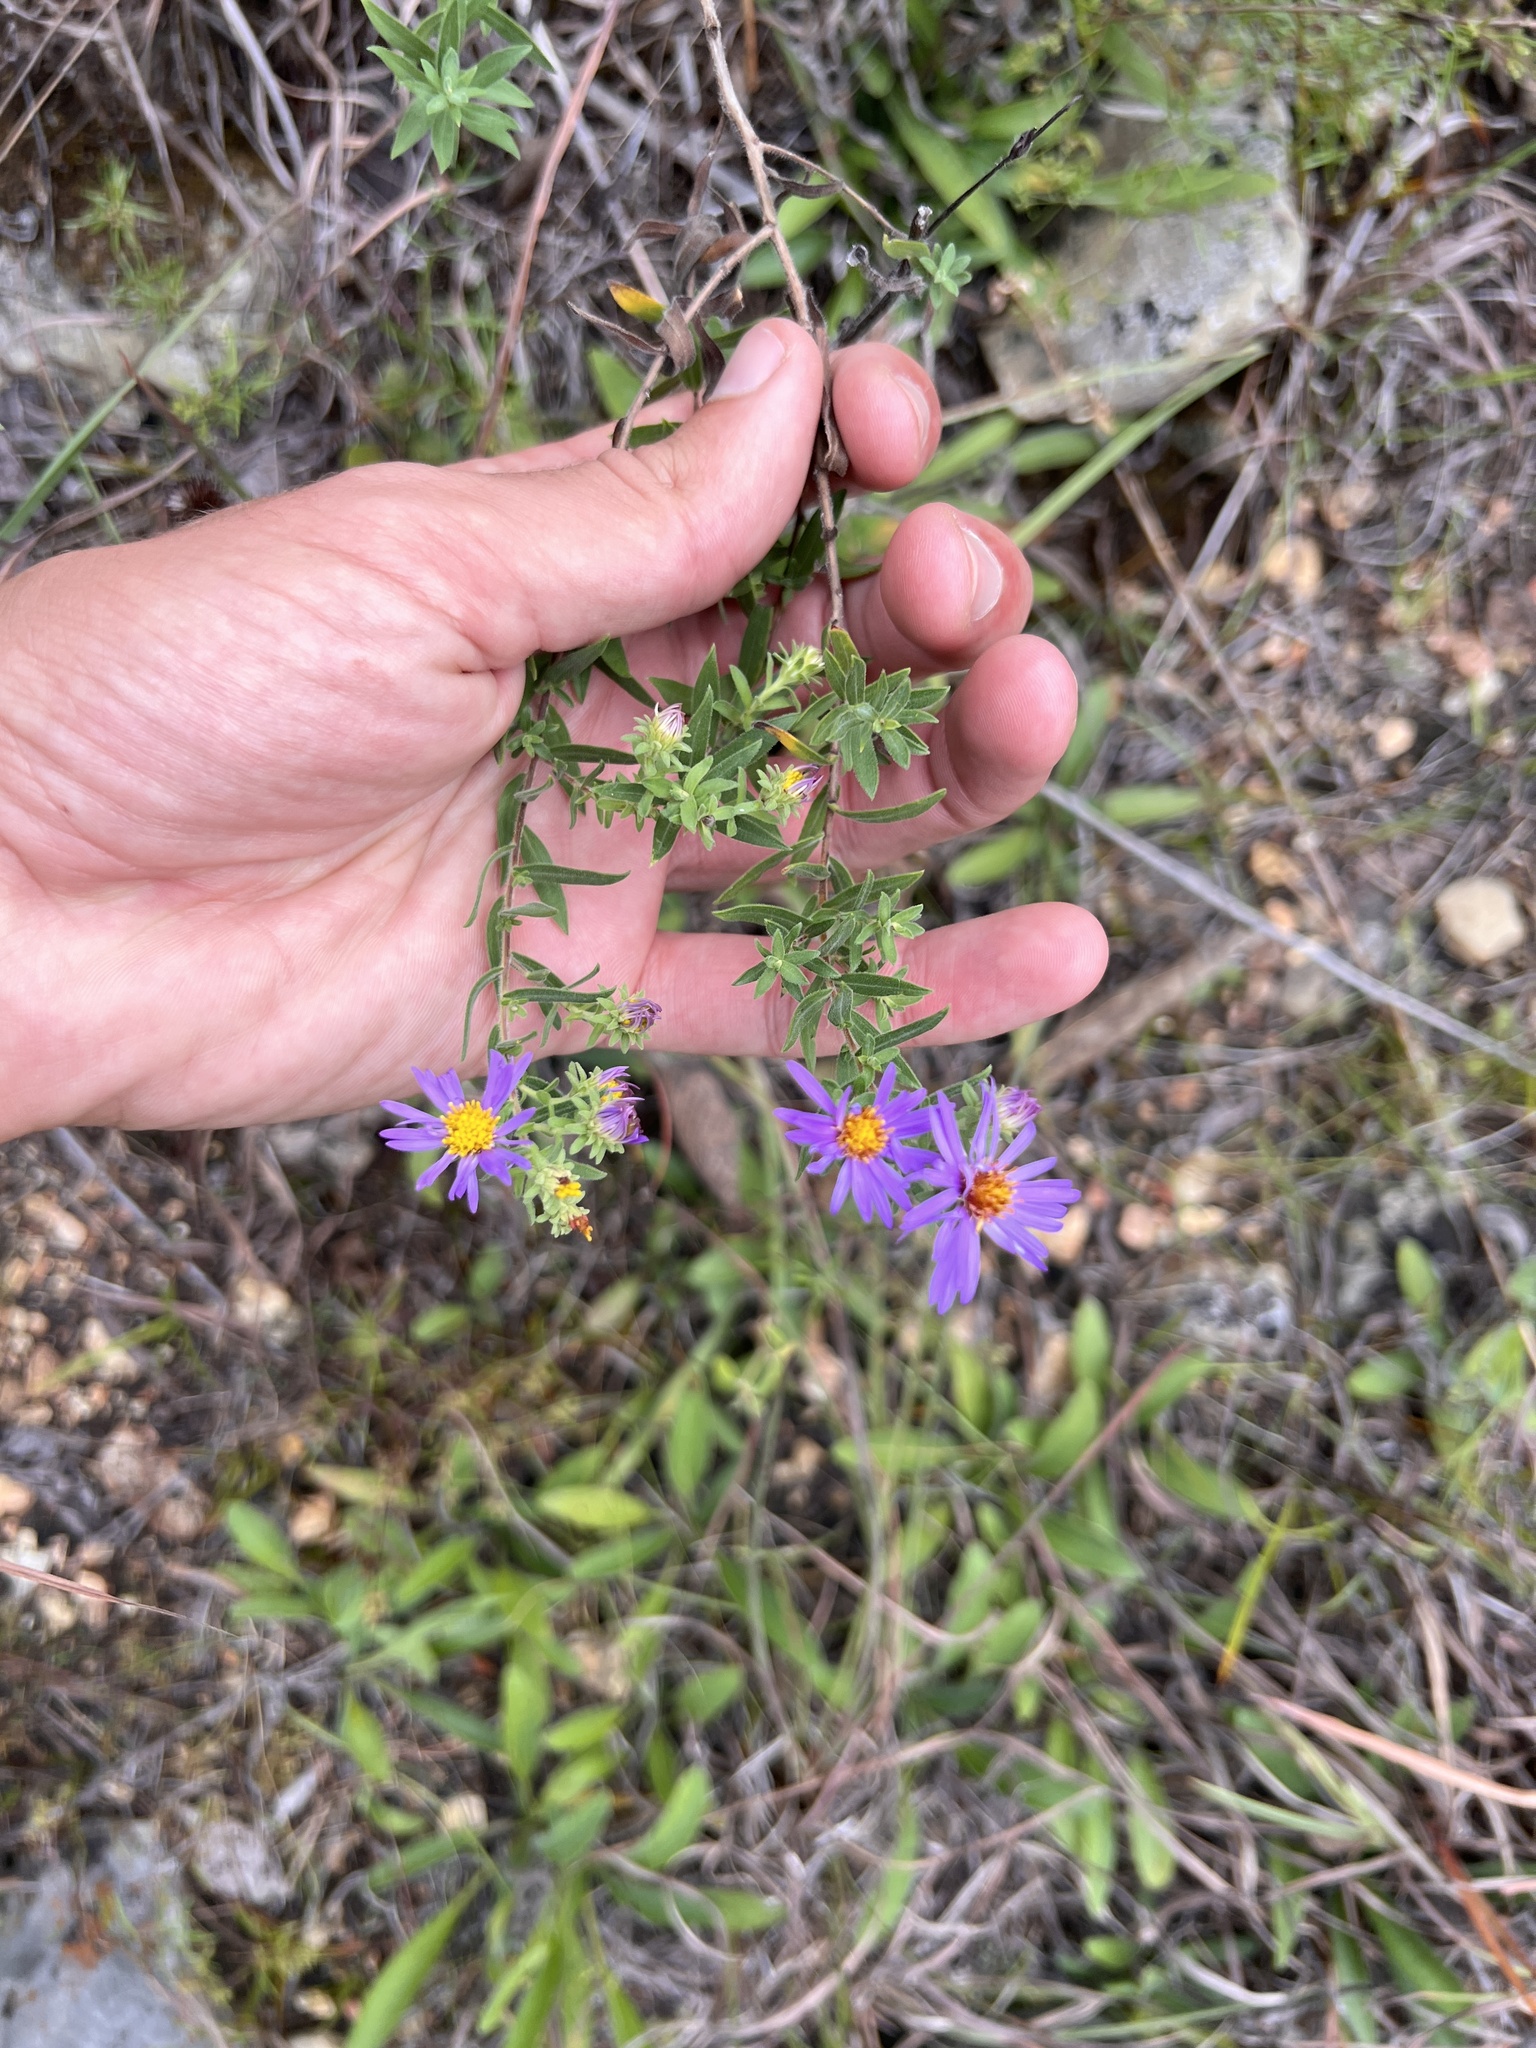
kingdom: Plantae
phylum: Tracheophyta
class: Magnoliopsida
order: Asterales
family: Asteraceae
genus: Symphyotrichum
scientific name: Symphyotrichum oblongifolium
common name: Aromatic aster
